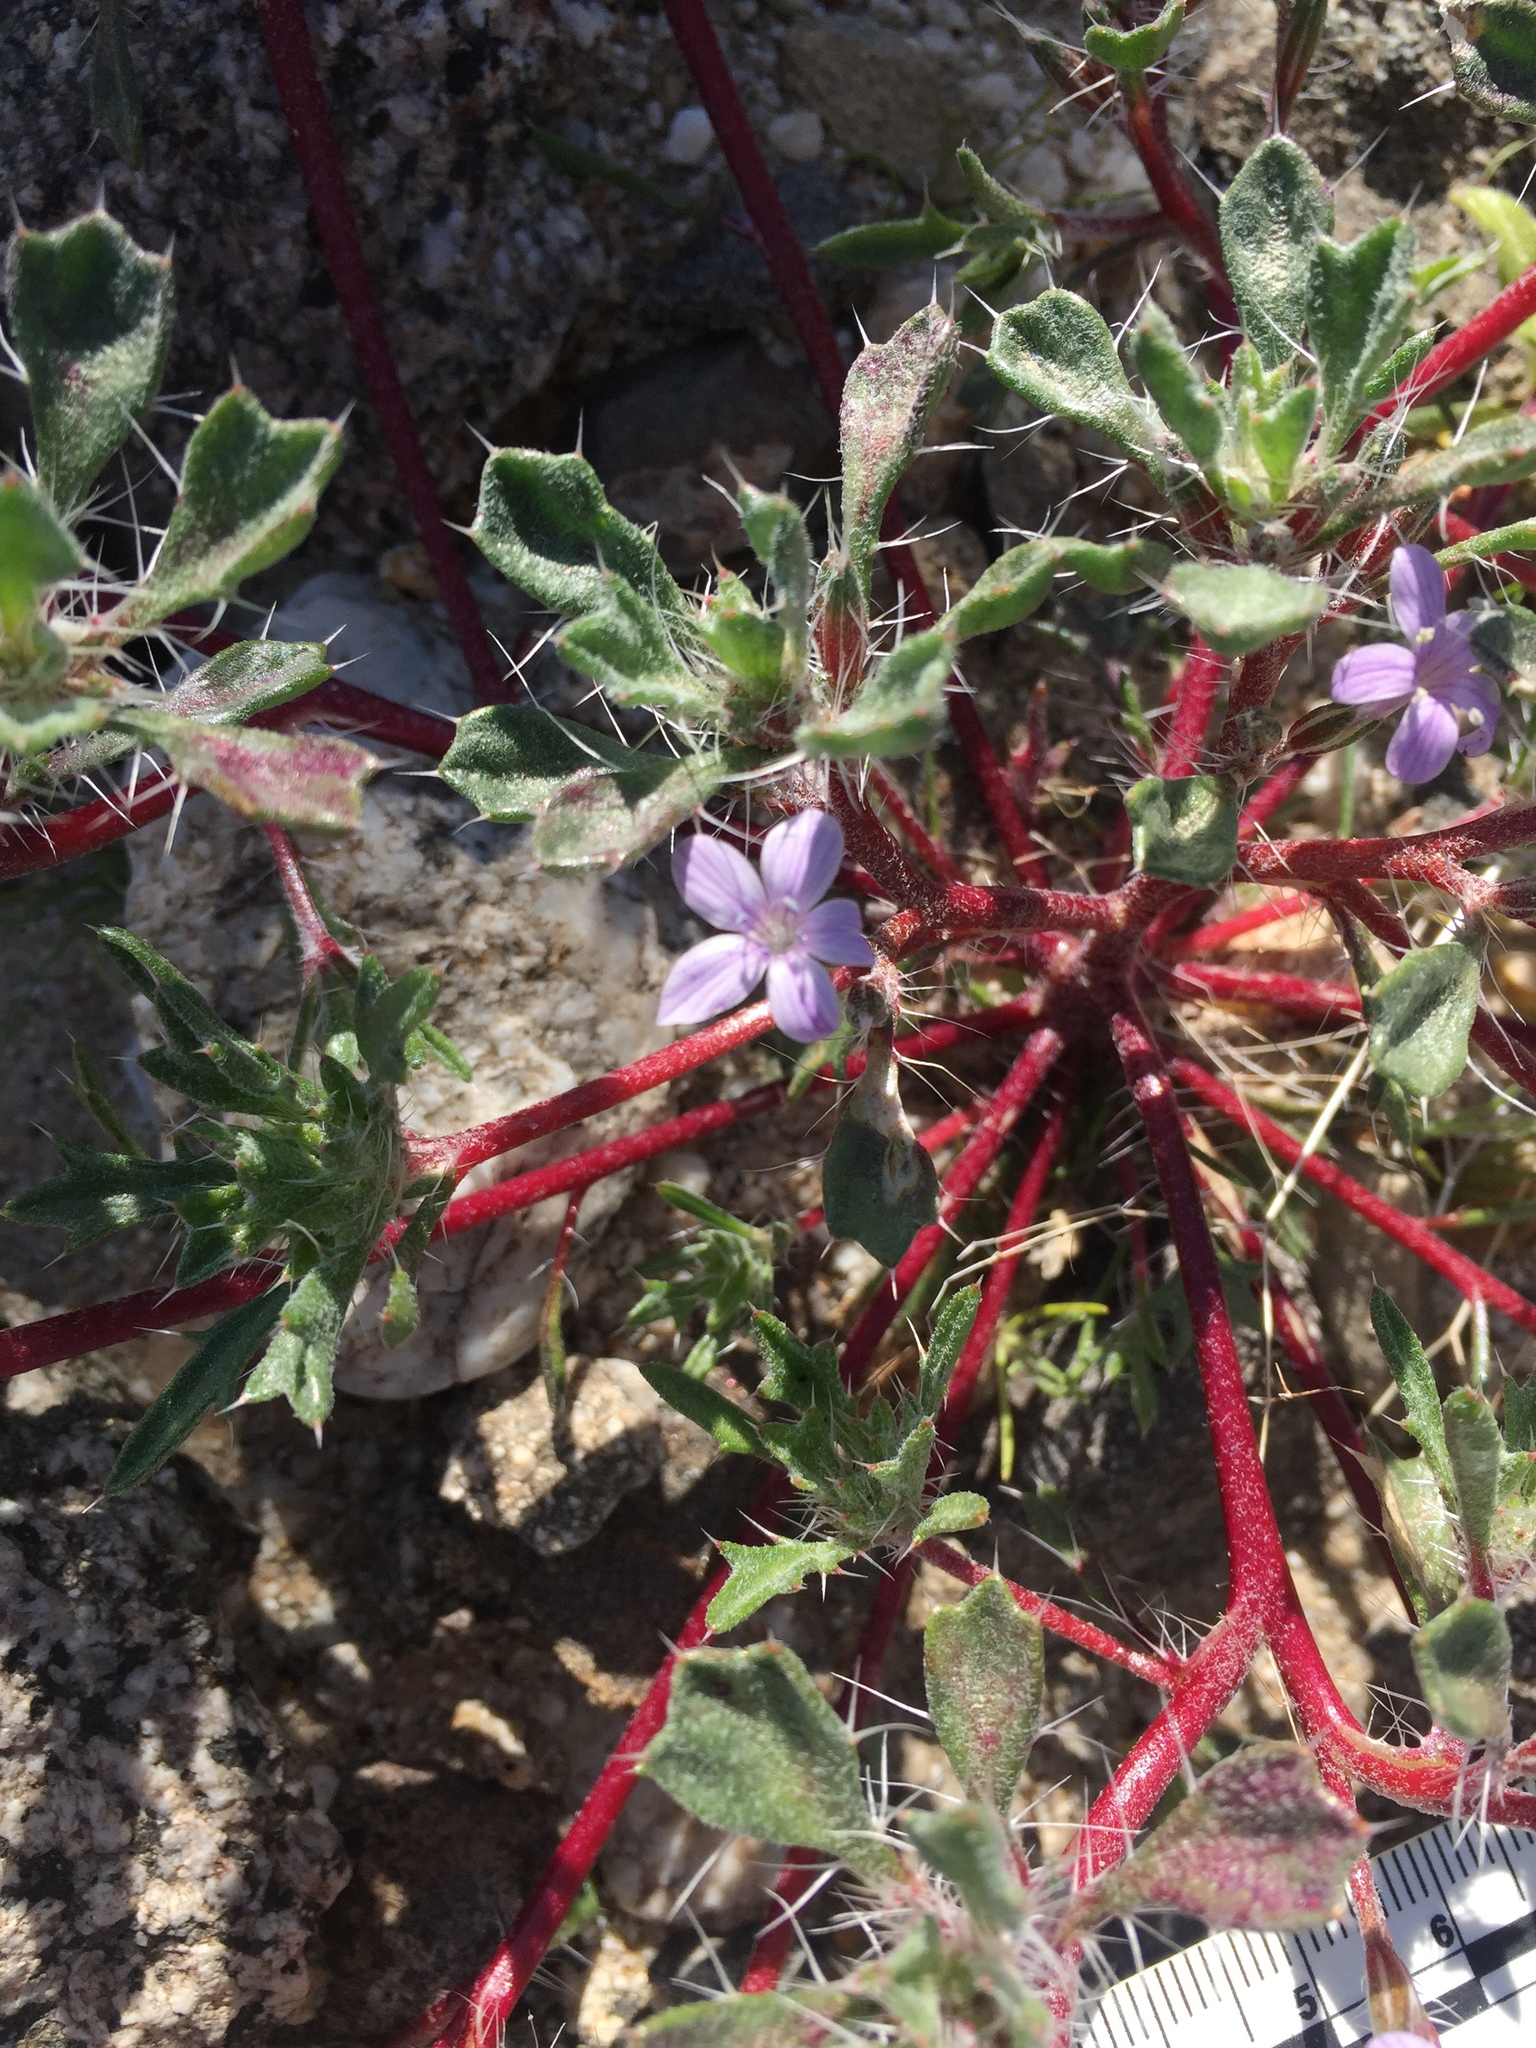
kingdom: Plantae
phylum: Tracheophyta
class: Magnoliopsida
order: Ericales
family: Polemoniaceae
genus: Langloisia
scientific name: Langloisia setosissima
